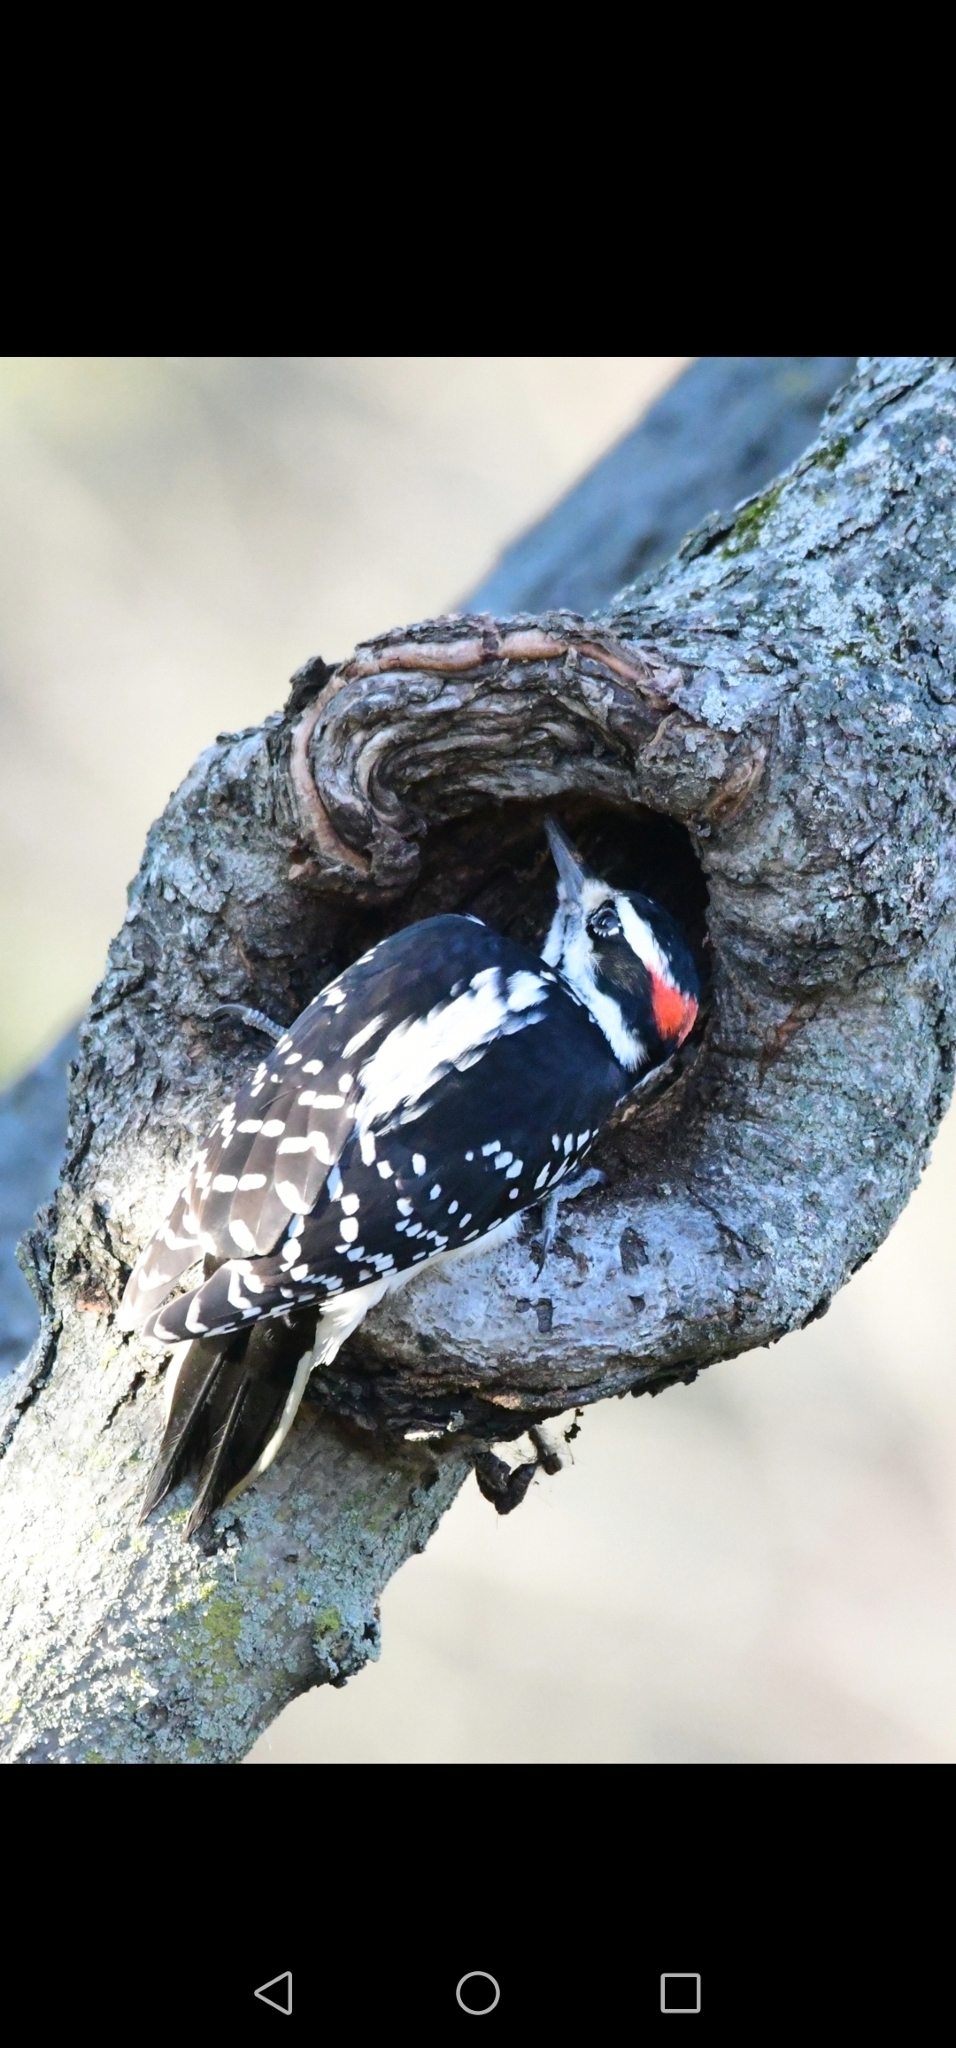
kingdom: Animalia
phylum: Chordata
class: Aves
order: Piciformes
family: Picidae
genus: Leuconotopicus
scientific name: Leuconotopicus villosus
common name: Hairy woodpecker
